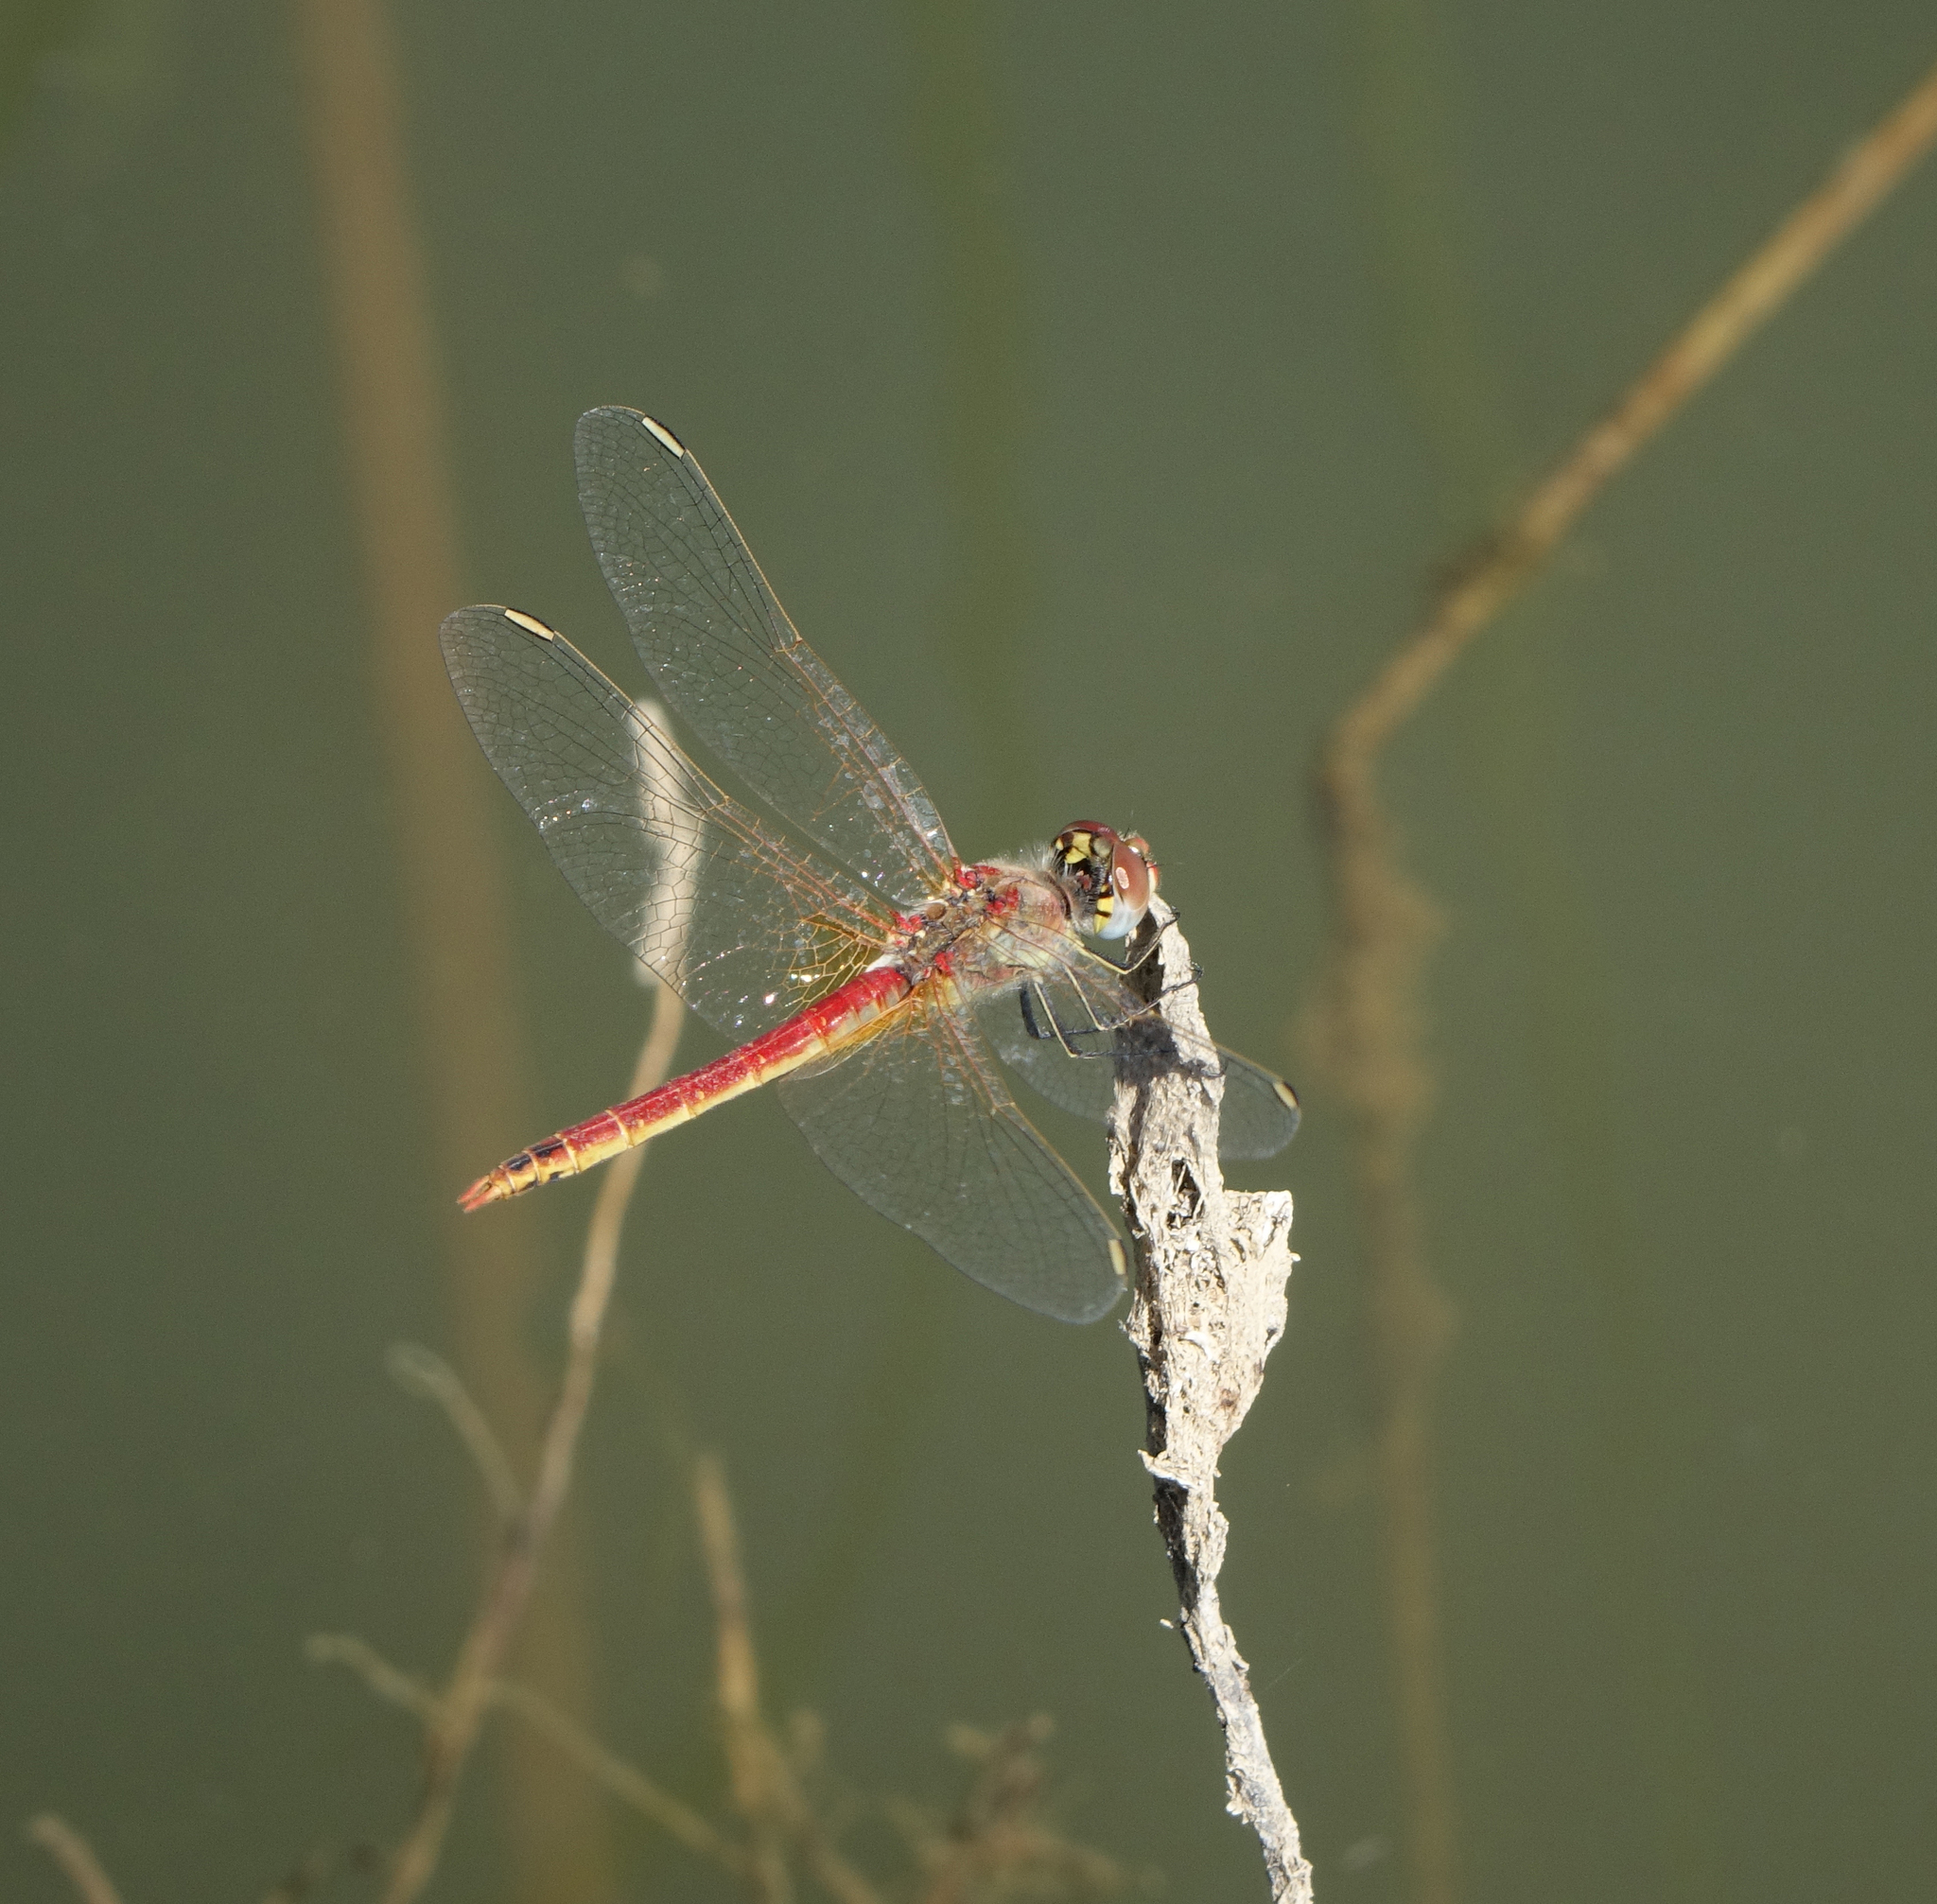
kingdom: Animalia
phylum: Arthropoda
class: Insecta
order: Odonata
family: Libellulidae
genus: Sympetrum
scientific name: Sympetrum fonscolombii
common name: Red-veined darter
